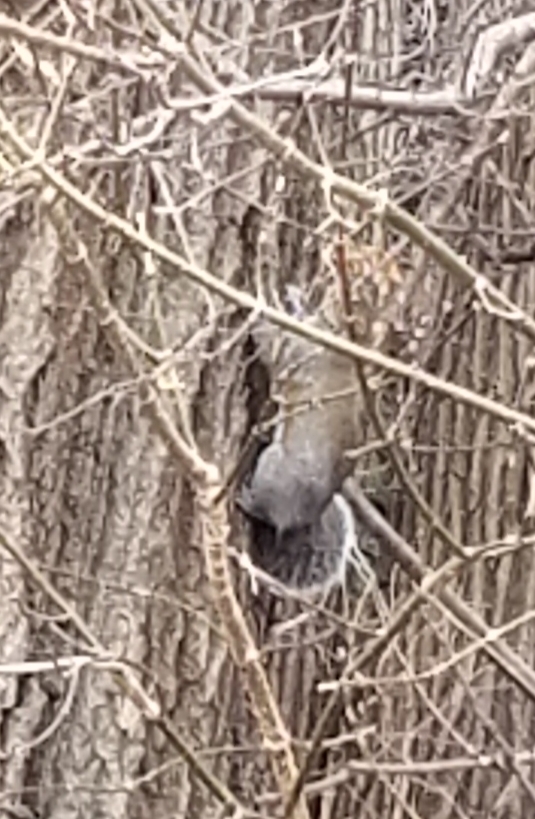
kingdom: Animalia
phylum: Chordata
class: Mammalia
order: Rodentia
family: Sciuridae
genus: Sciurus
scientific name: Sciurus carolinensis
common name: Eastern gray squirrel
